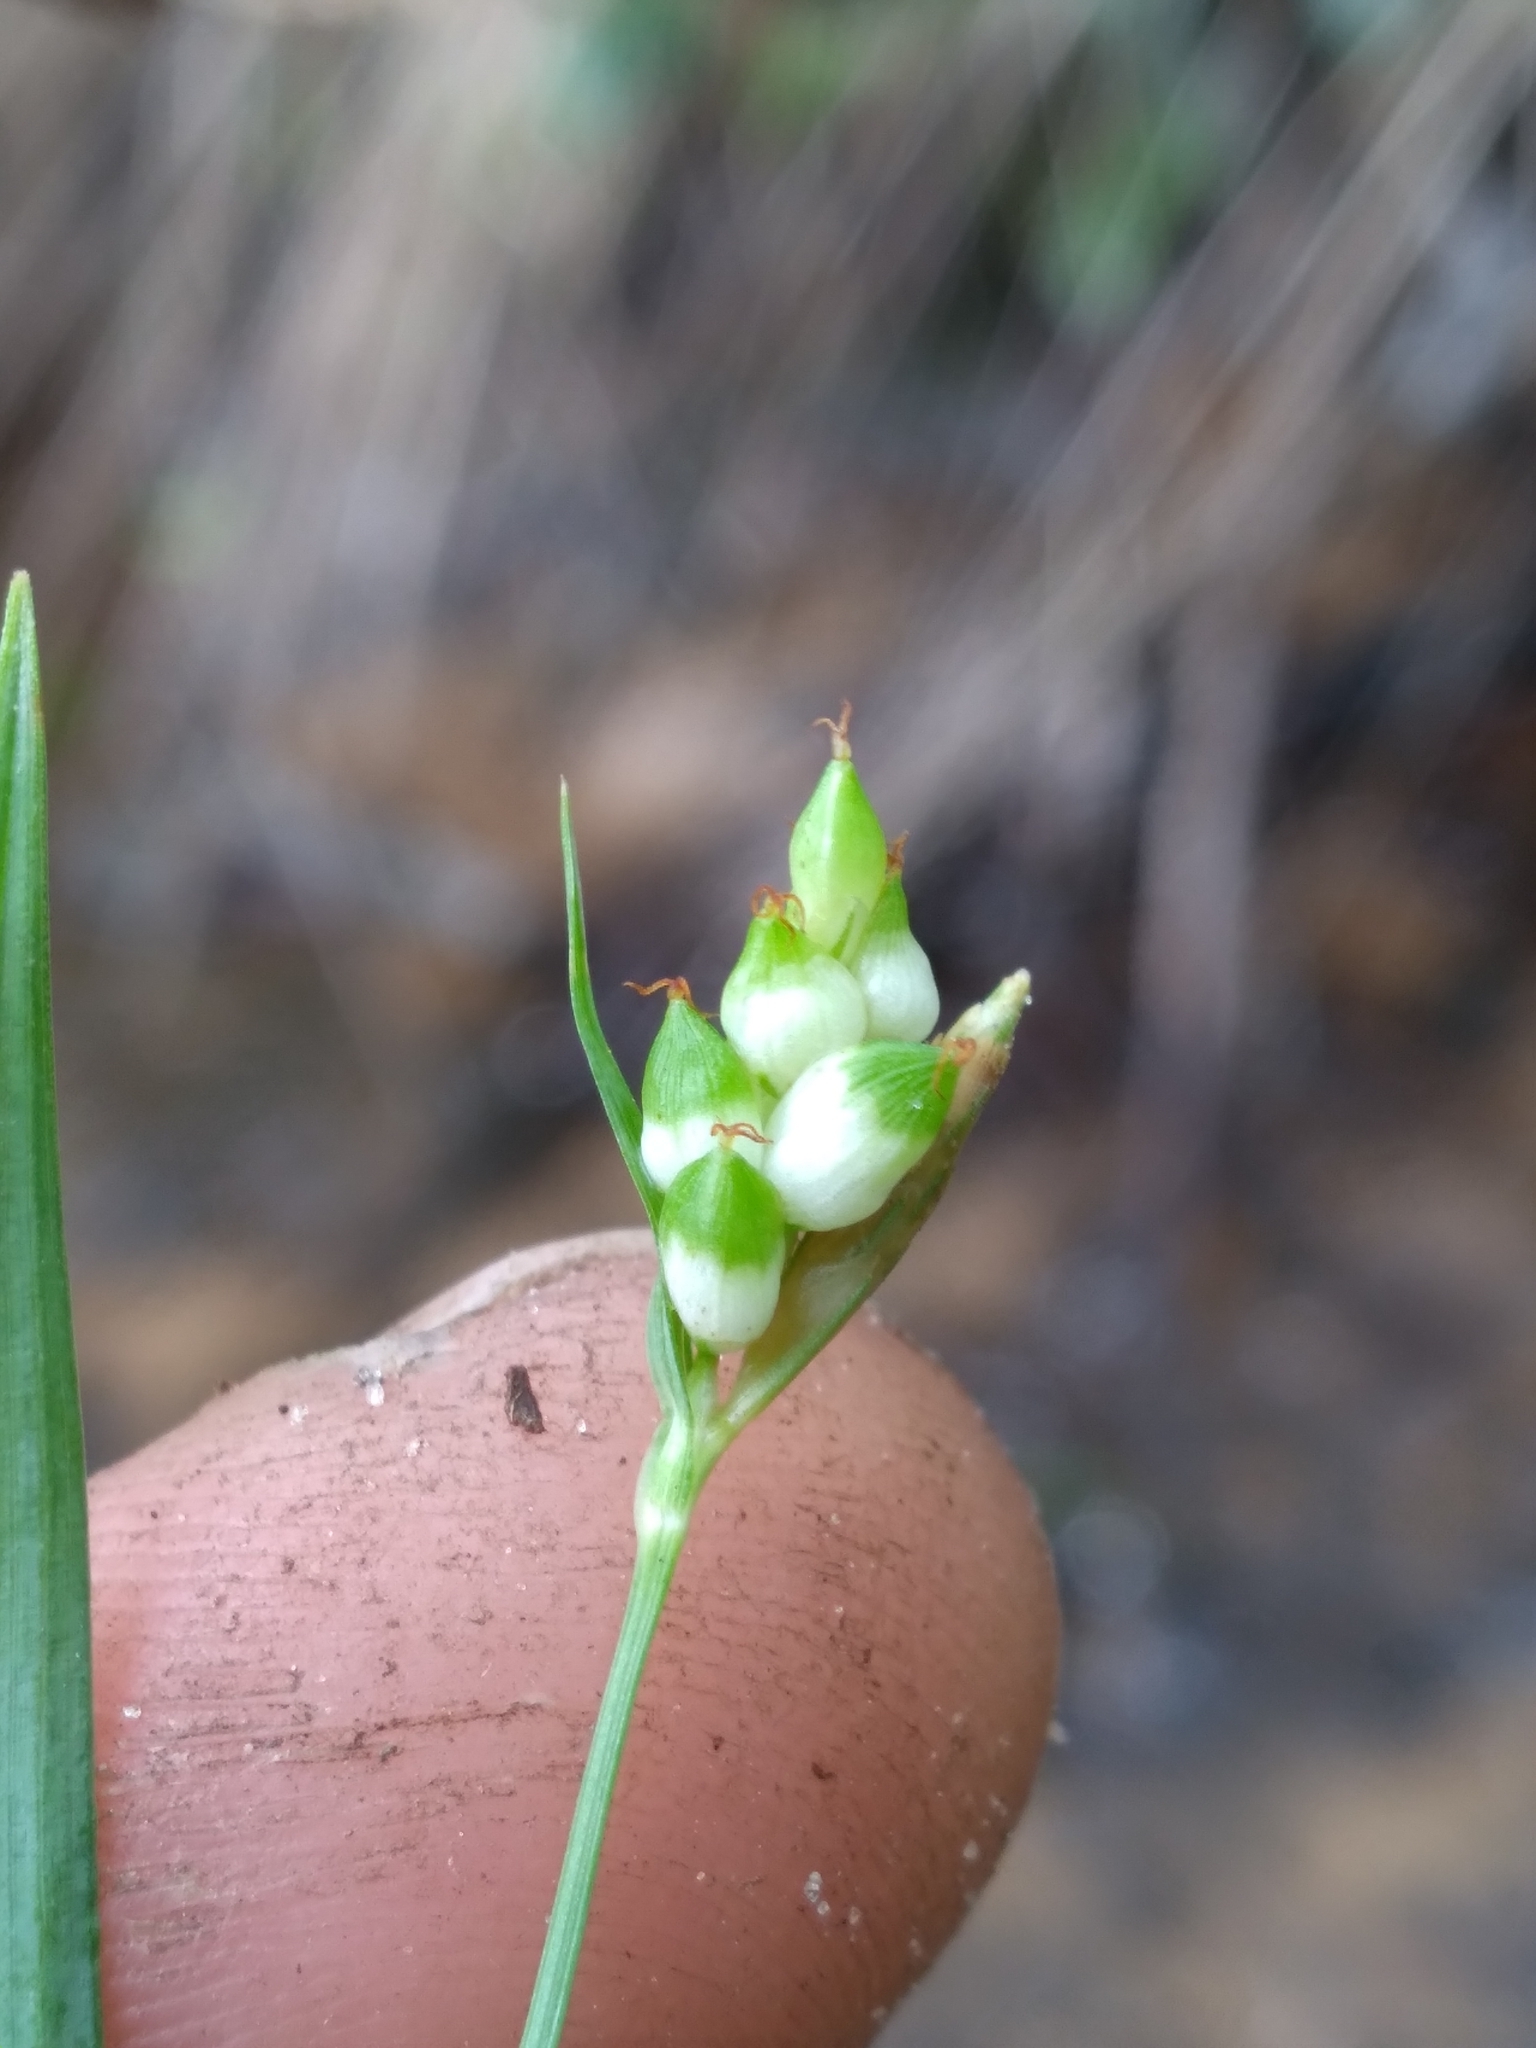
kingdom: Plantae
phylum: Tracheophyta
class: Liliopsida
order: Poales
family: Cyperaceae
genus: Carex
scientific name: Carex abscondita
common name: Thicket sedge
